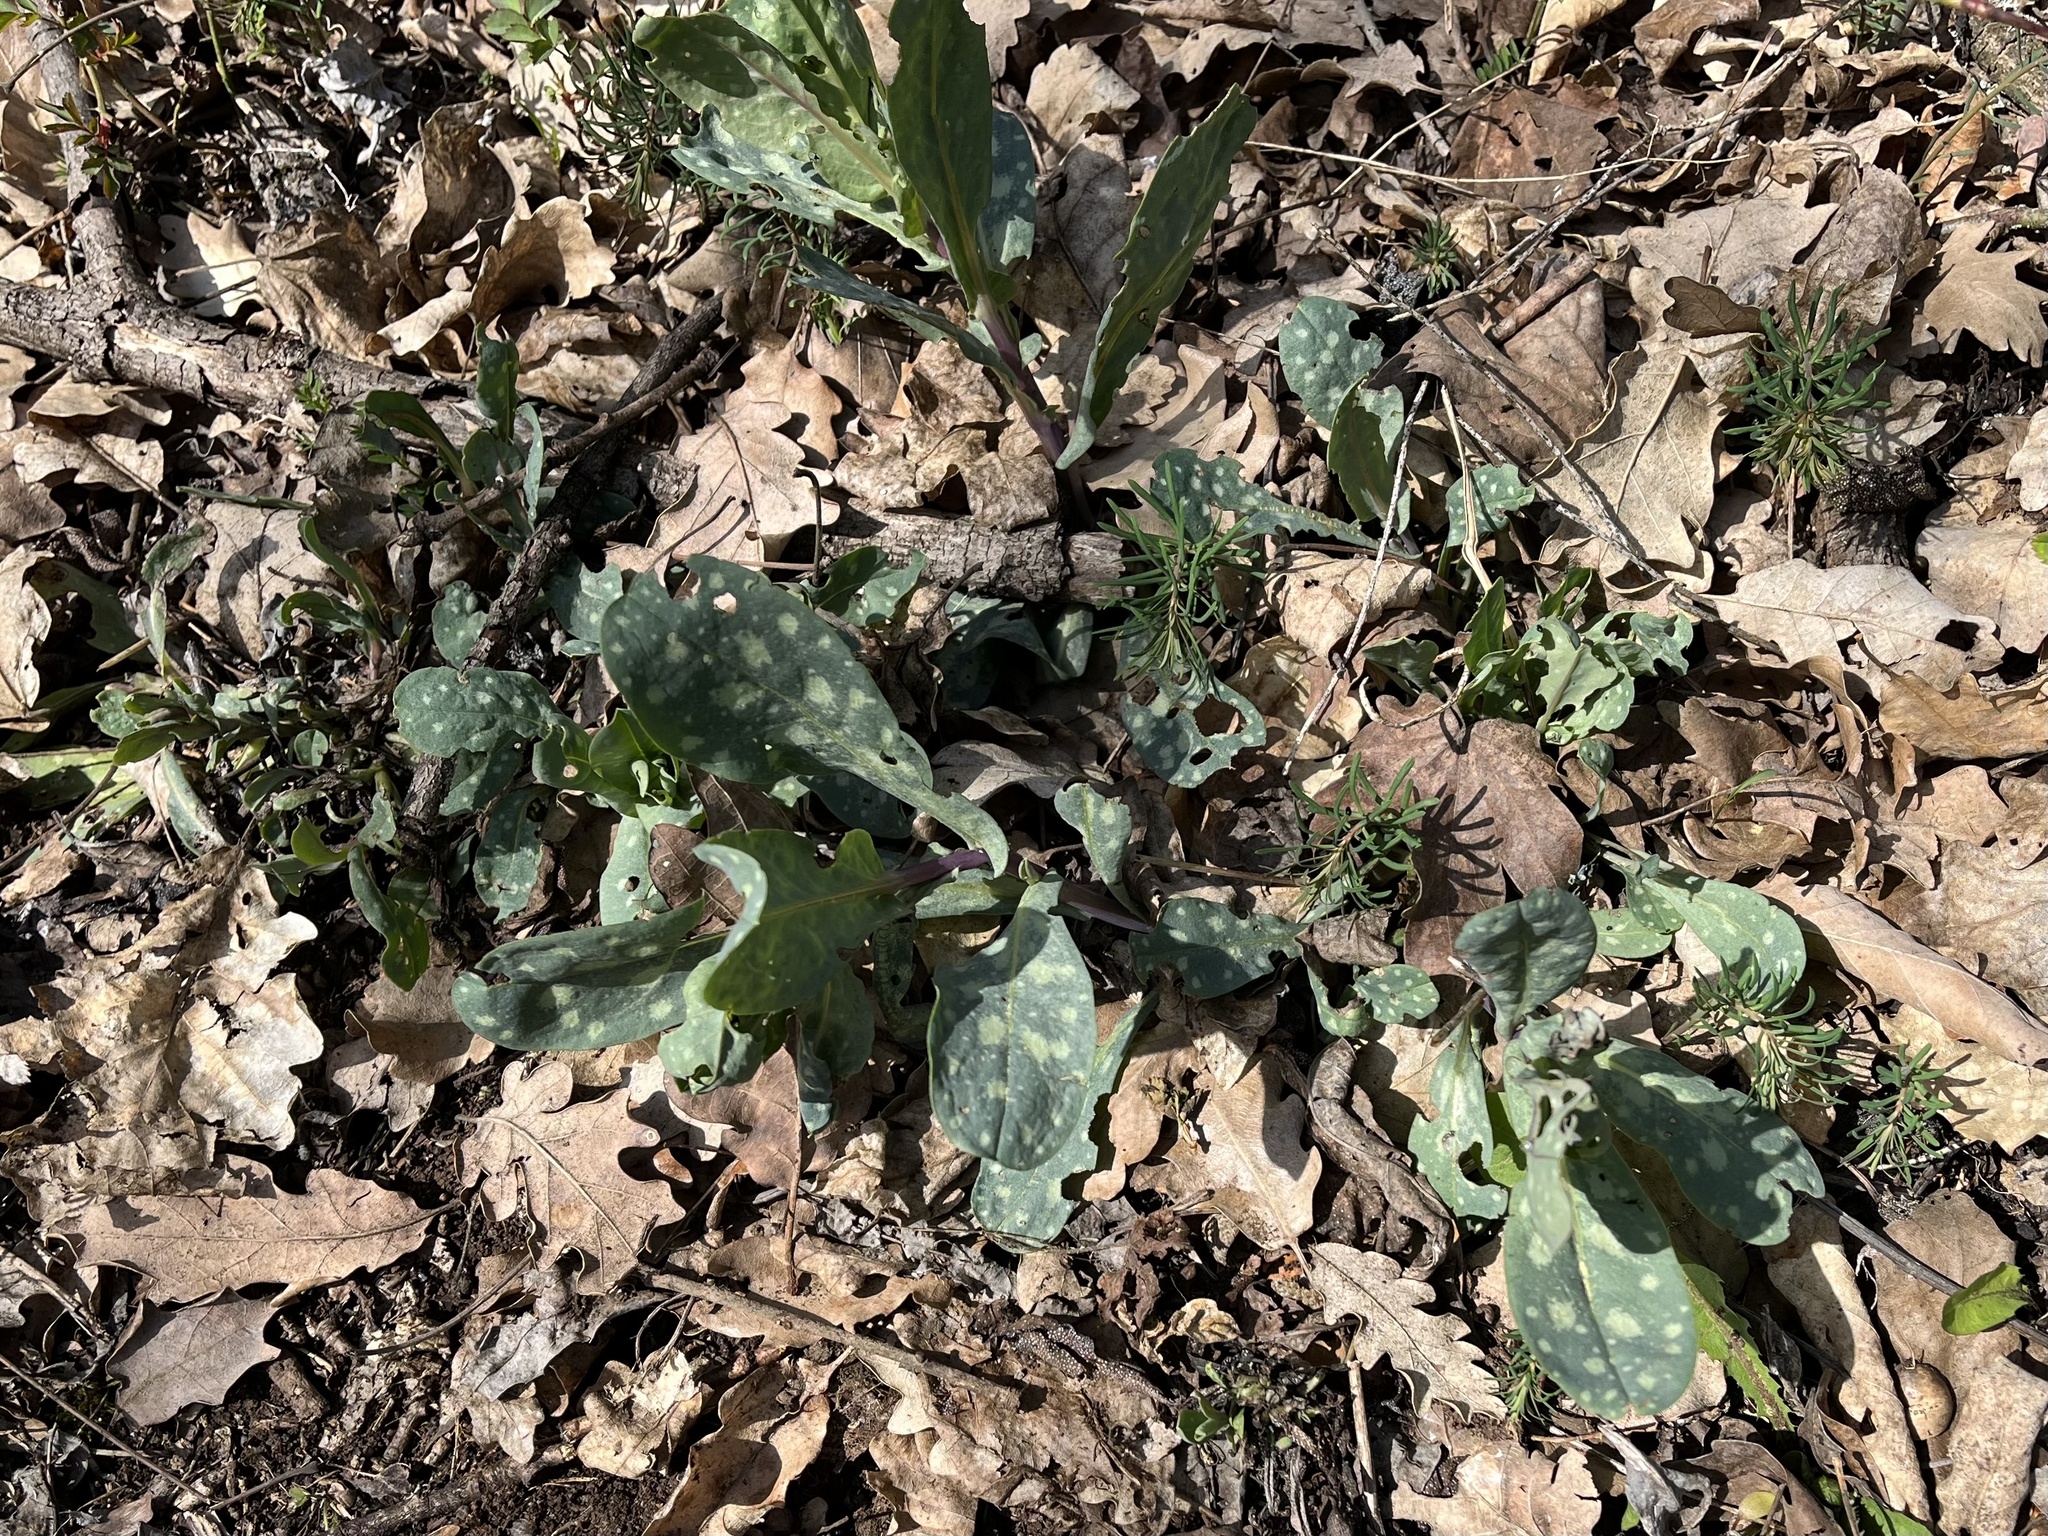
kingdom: Plantae
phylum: Tracheophyta
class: Magnoliopsida
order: Boraginales
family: Boraginaceae
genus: Cerinthe
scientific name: Cerinthe minor
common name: Lesser honeywort
